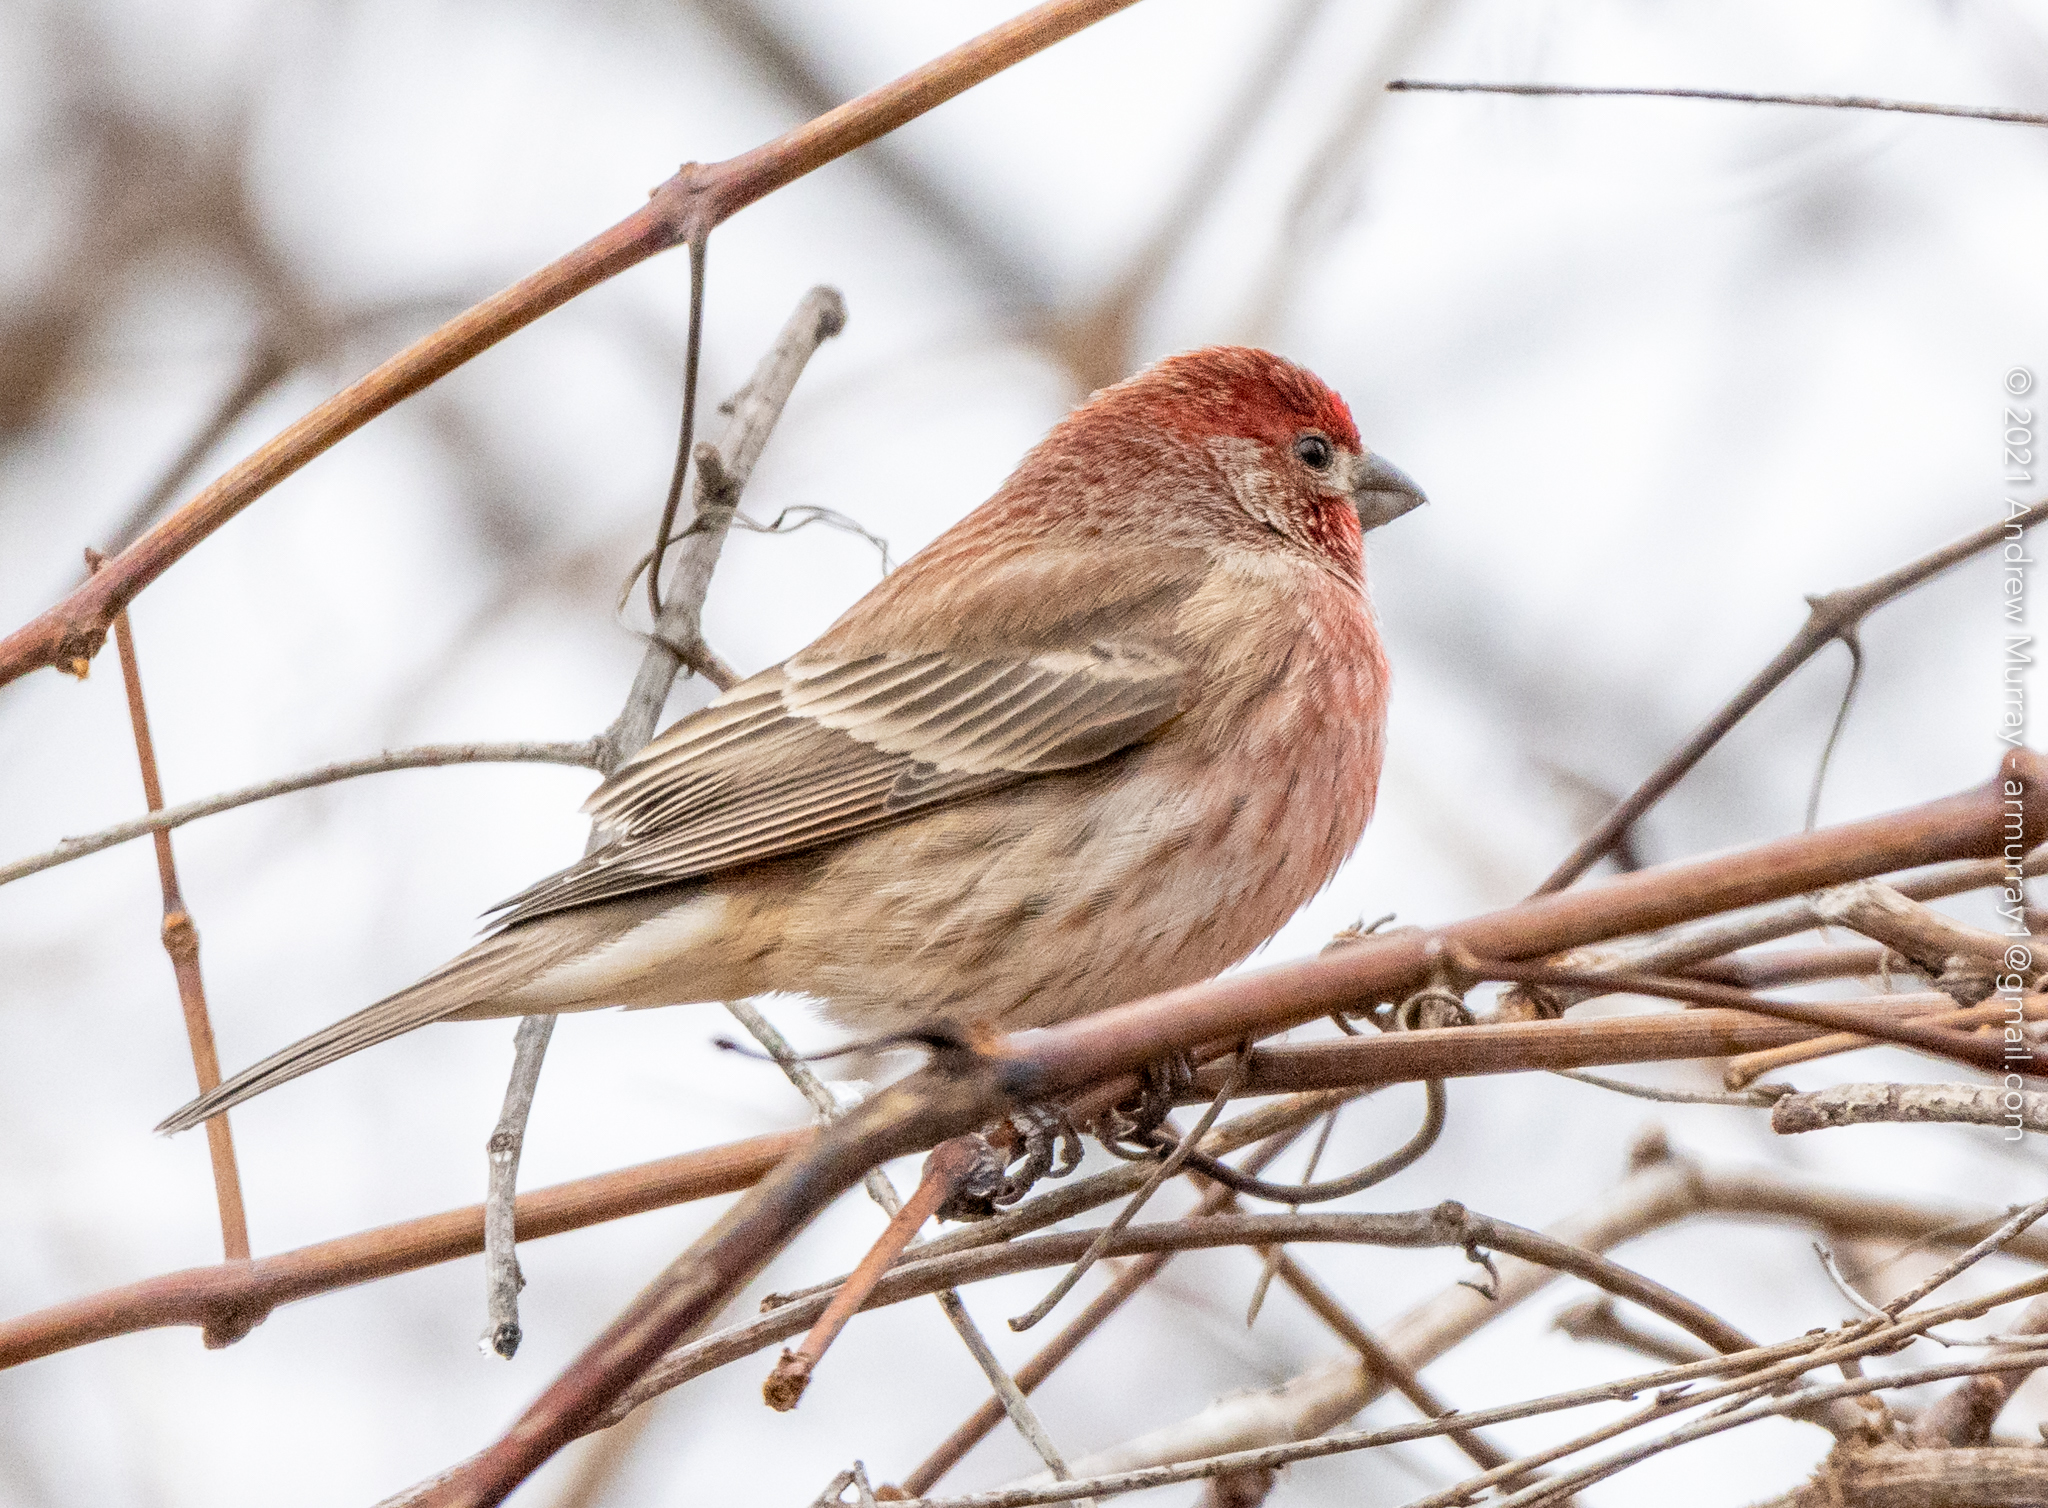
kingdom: Animalia
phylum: Chordata
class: Aves
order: Passeriformes
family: Fringillidae
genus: Haemorhous
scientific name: Haemorhous mexicanus
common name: House finch
